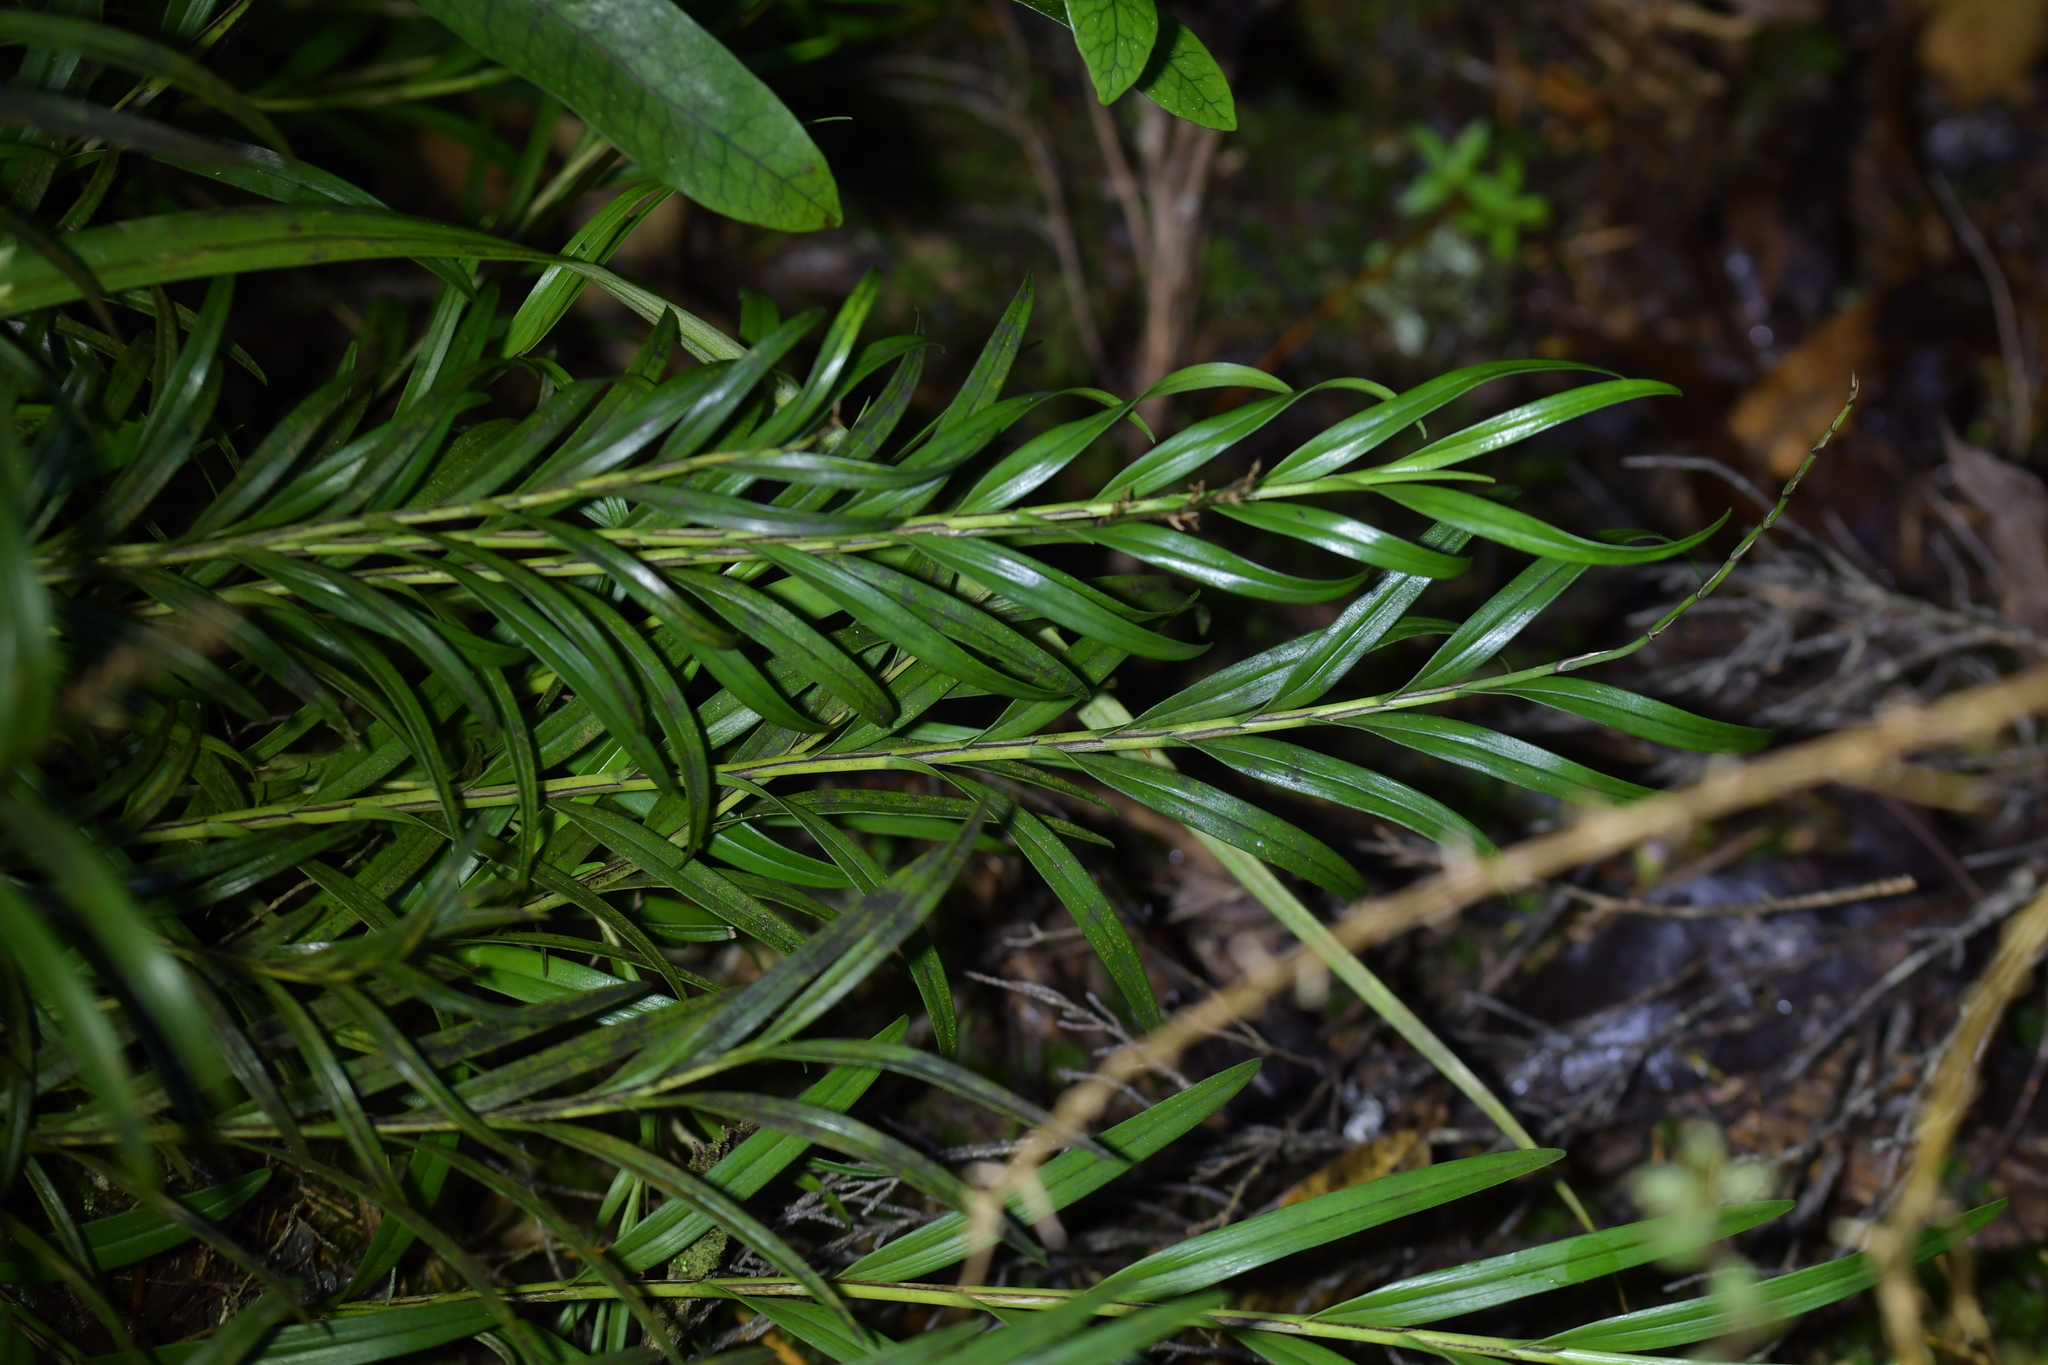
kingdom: Plantae
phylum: Tracheophyta
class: Liliopsida
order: Asparagales
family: Orchidaceae
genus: Earina
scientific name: Earina autumnalis
